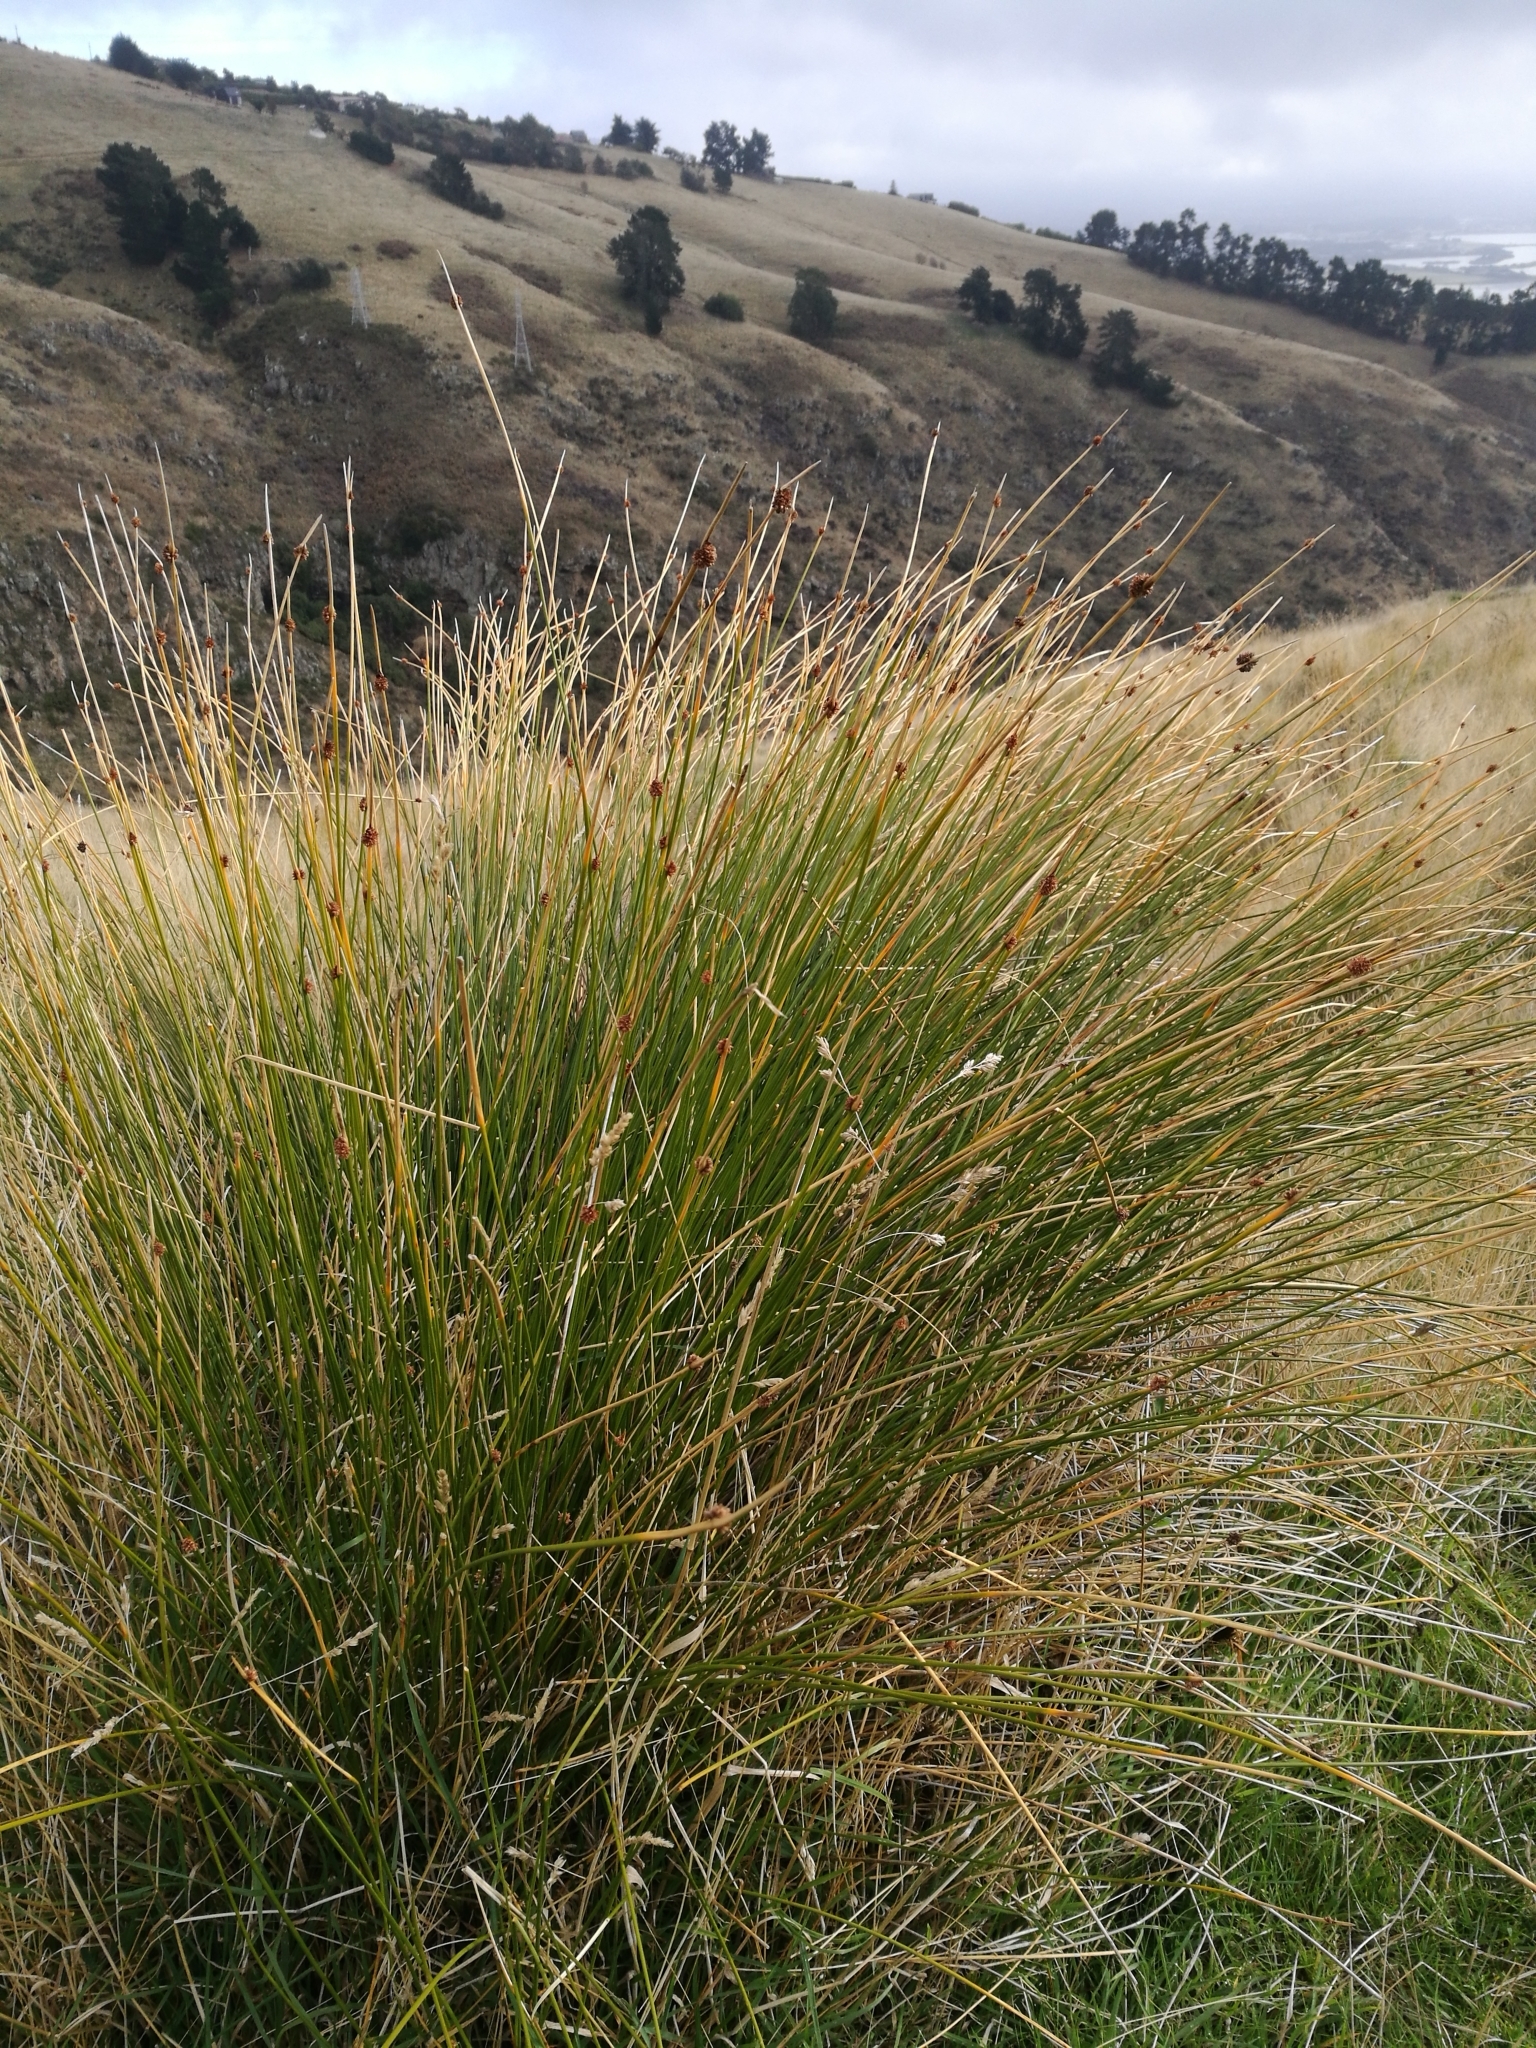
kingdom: Plantae
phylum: Tracheophyta
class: Liliopsida
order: Poales
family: Cyperaceae
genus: Ficinia
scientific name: Ficinia nodosa
